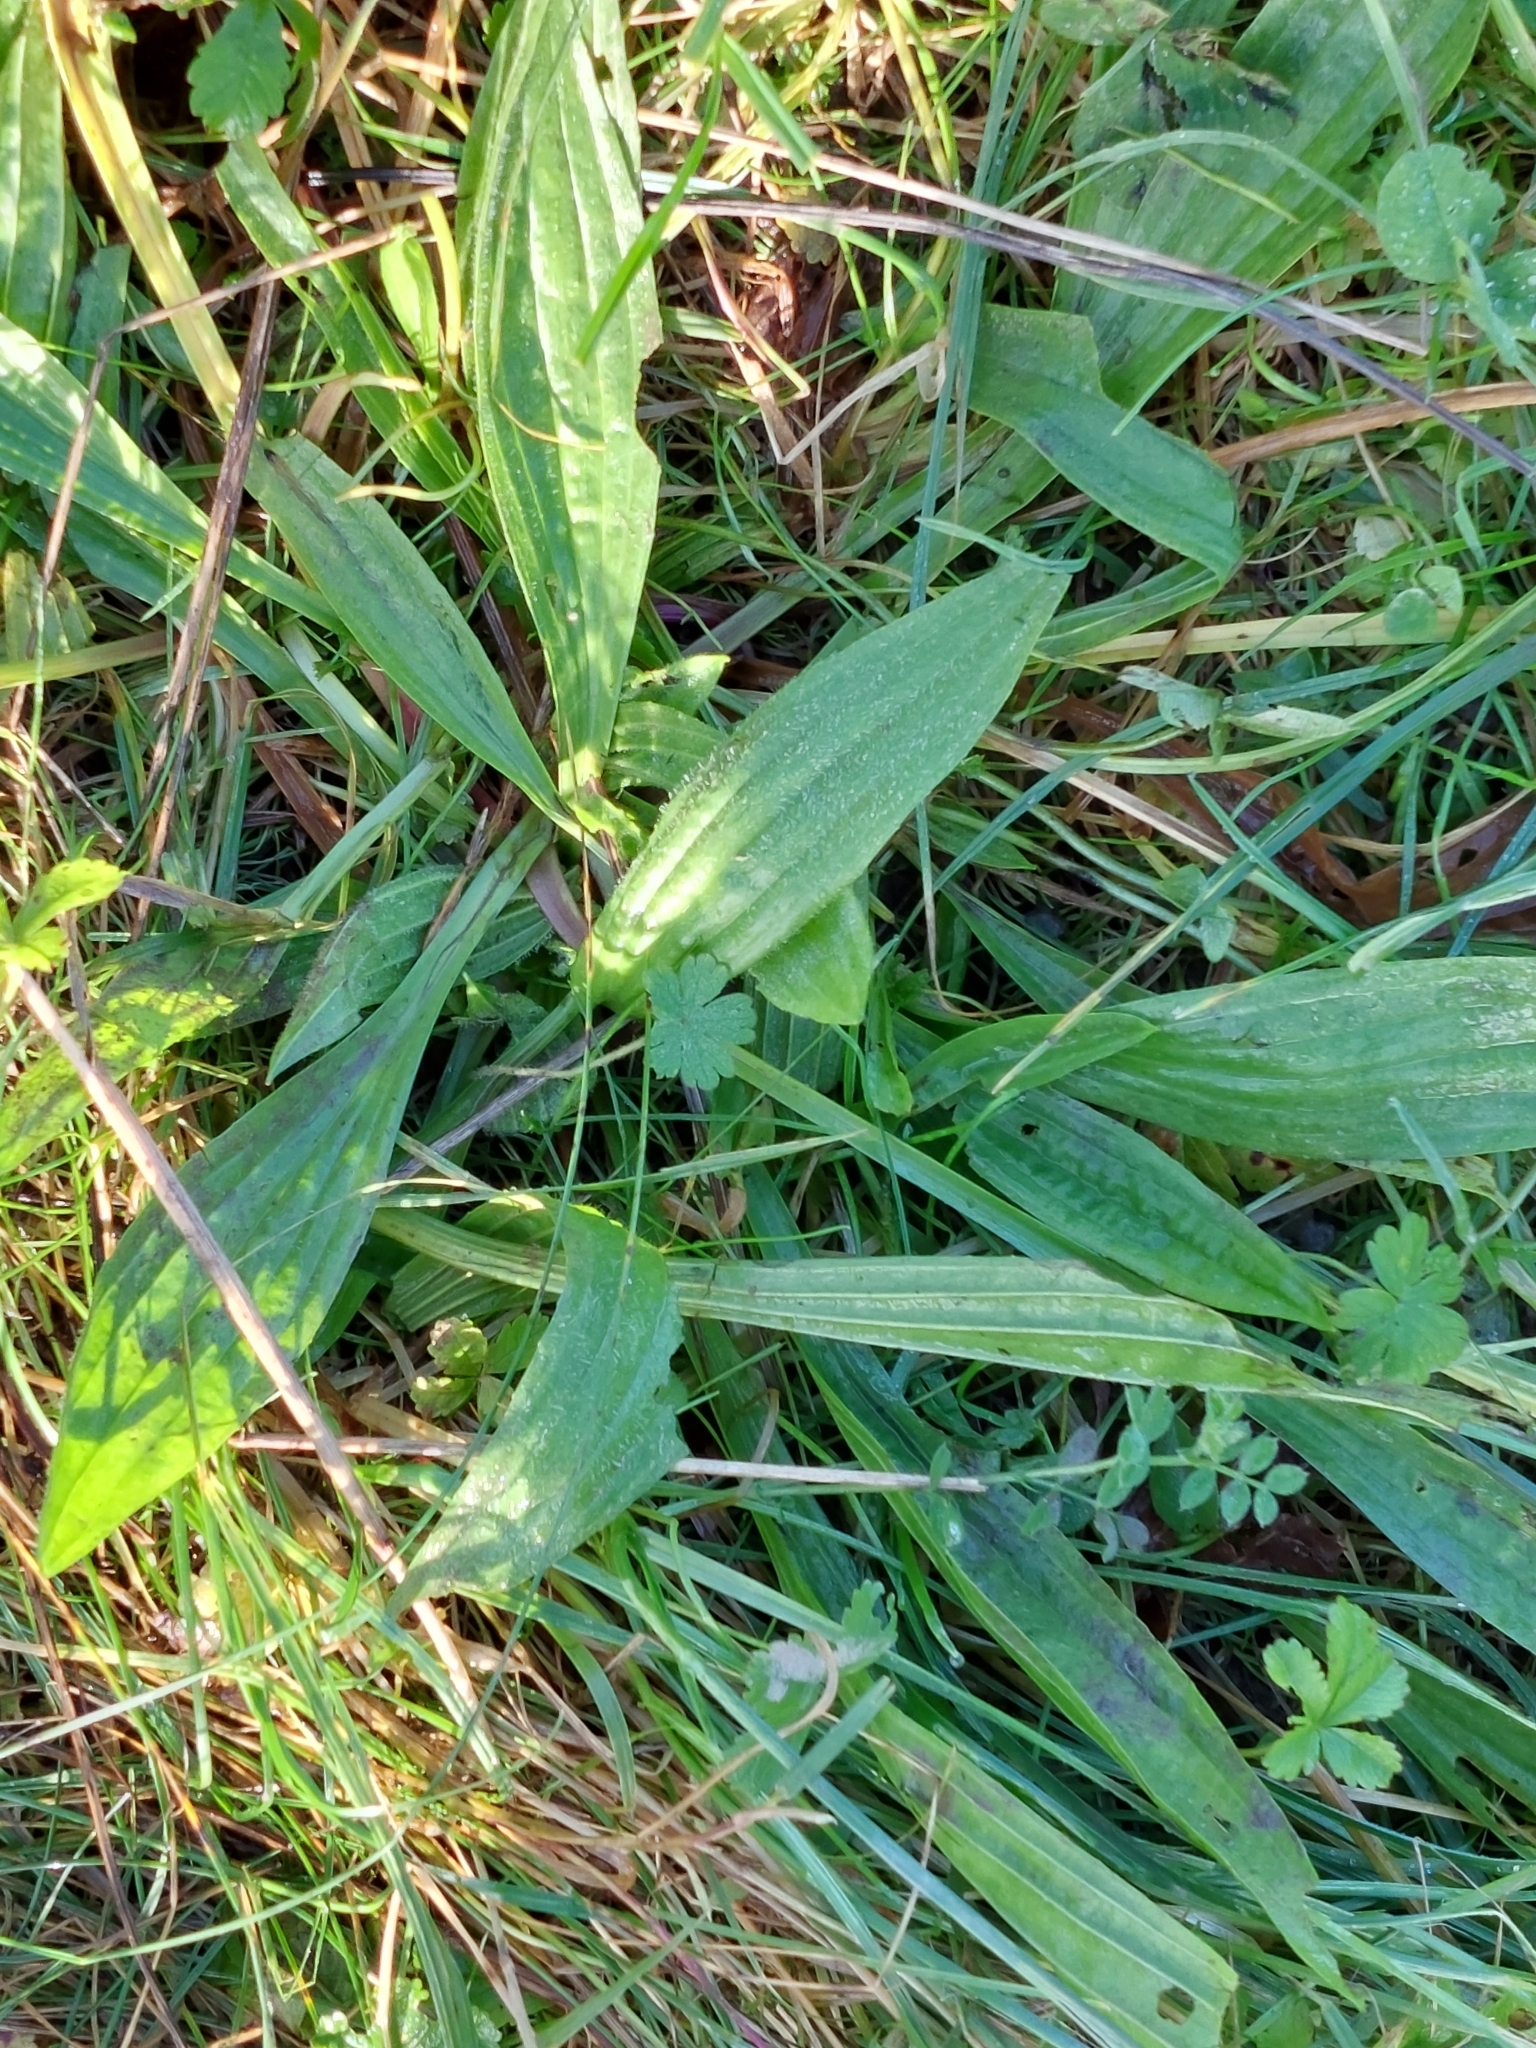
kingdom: Plantae
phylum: Tracheophyta
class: Magnoliopsida
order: Lamiales
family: Plantaginaceae
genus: Plantago
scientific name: Plantago lanceolata
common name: Ribwort plantain
